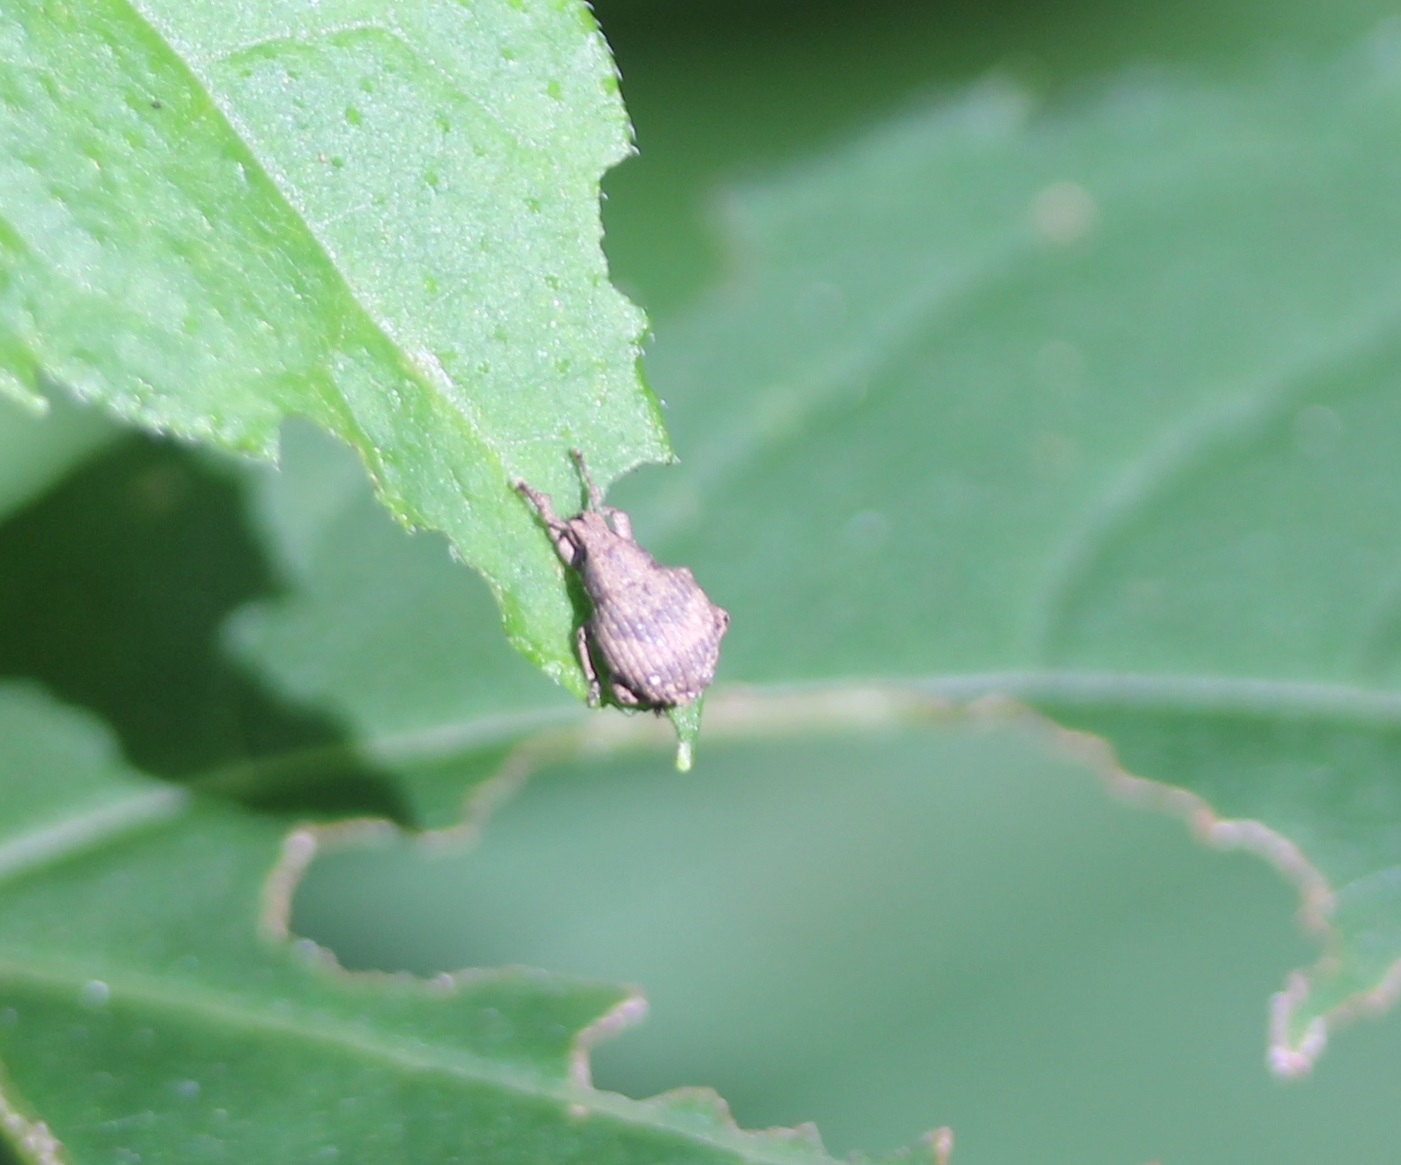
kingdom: Animalia
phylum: Arthropoda
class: Insecta
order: Coleoptera
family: Curculionidae
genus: Pseudocneorhinus
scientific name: Pseudocneorhinus bifasciatus
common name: Two-banded japanese weevil
